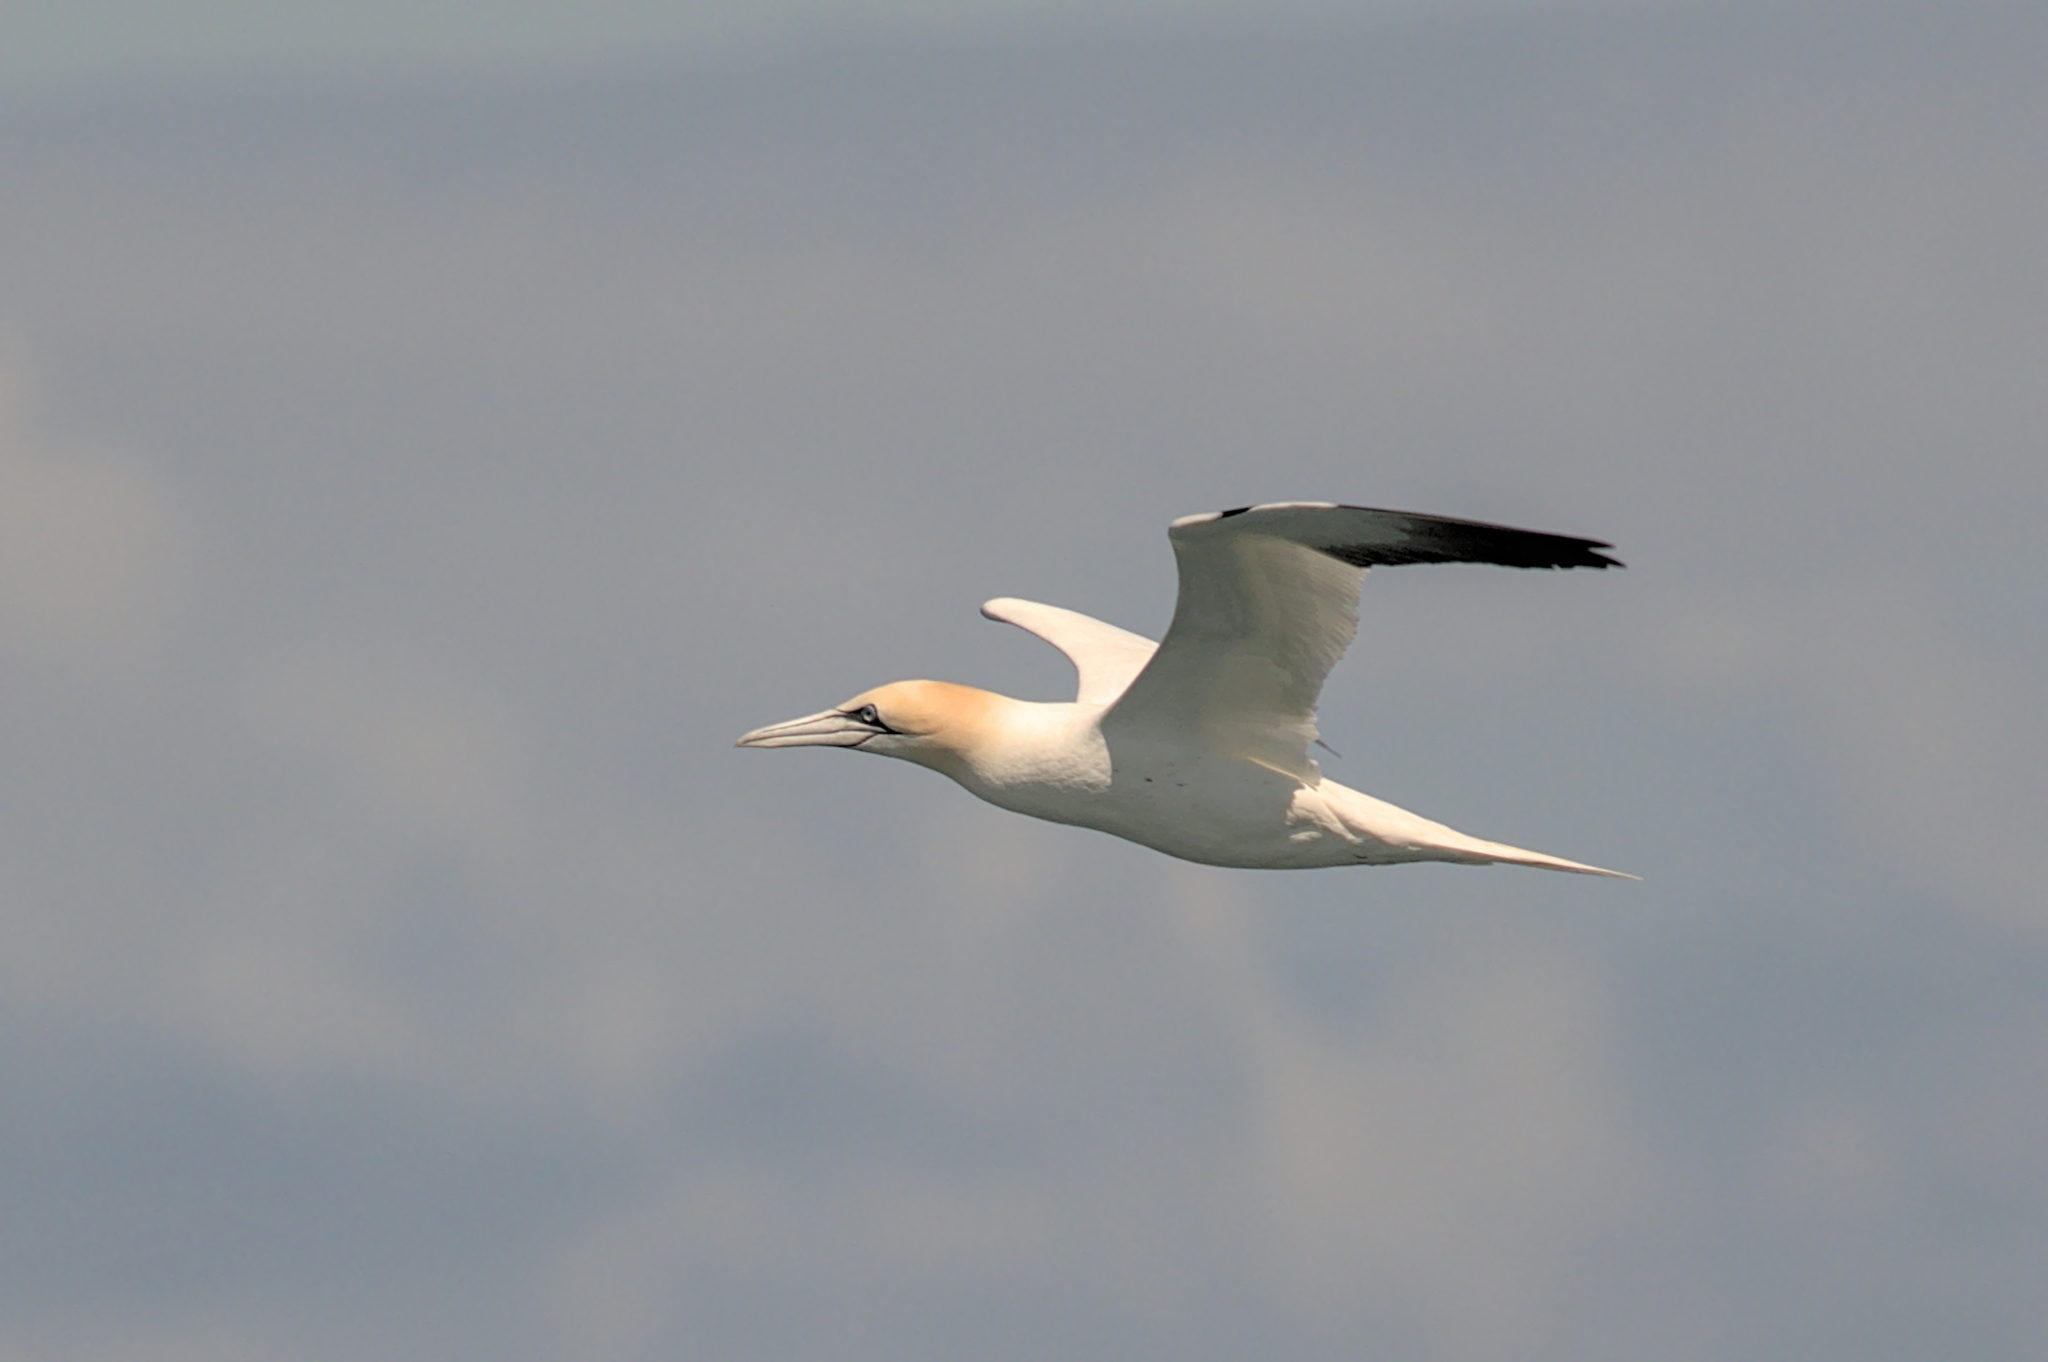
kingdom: Animalia
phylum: Chordata
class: Aves
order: Suliformes
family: Sulidae
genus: Morus
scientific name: Morus bassanus
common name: Northern gannet
